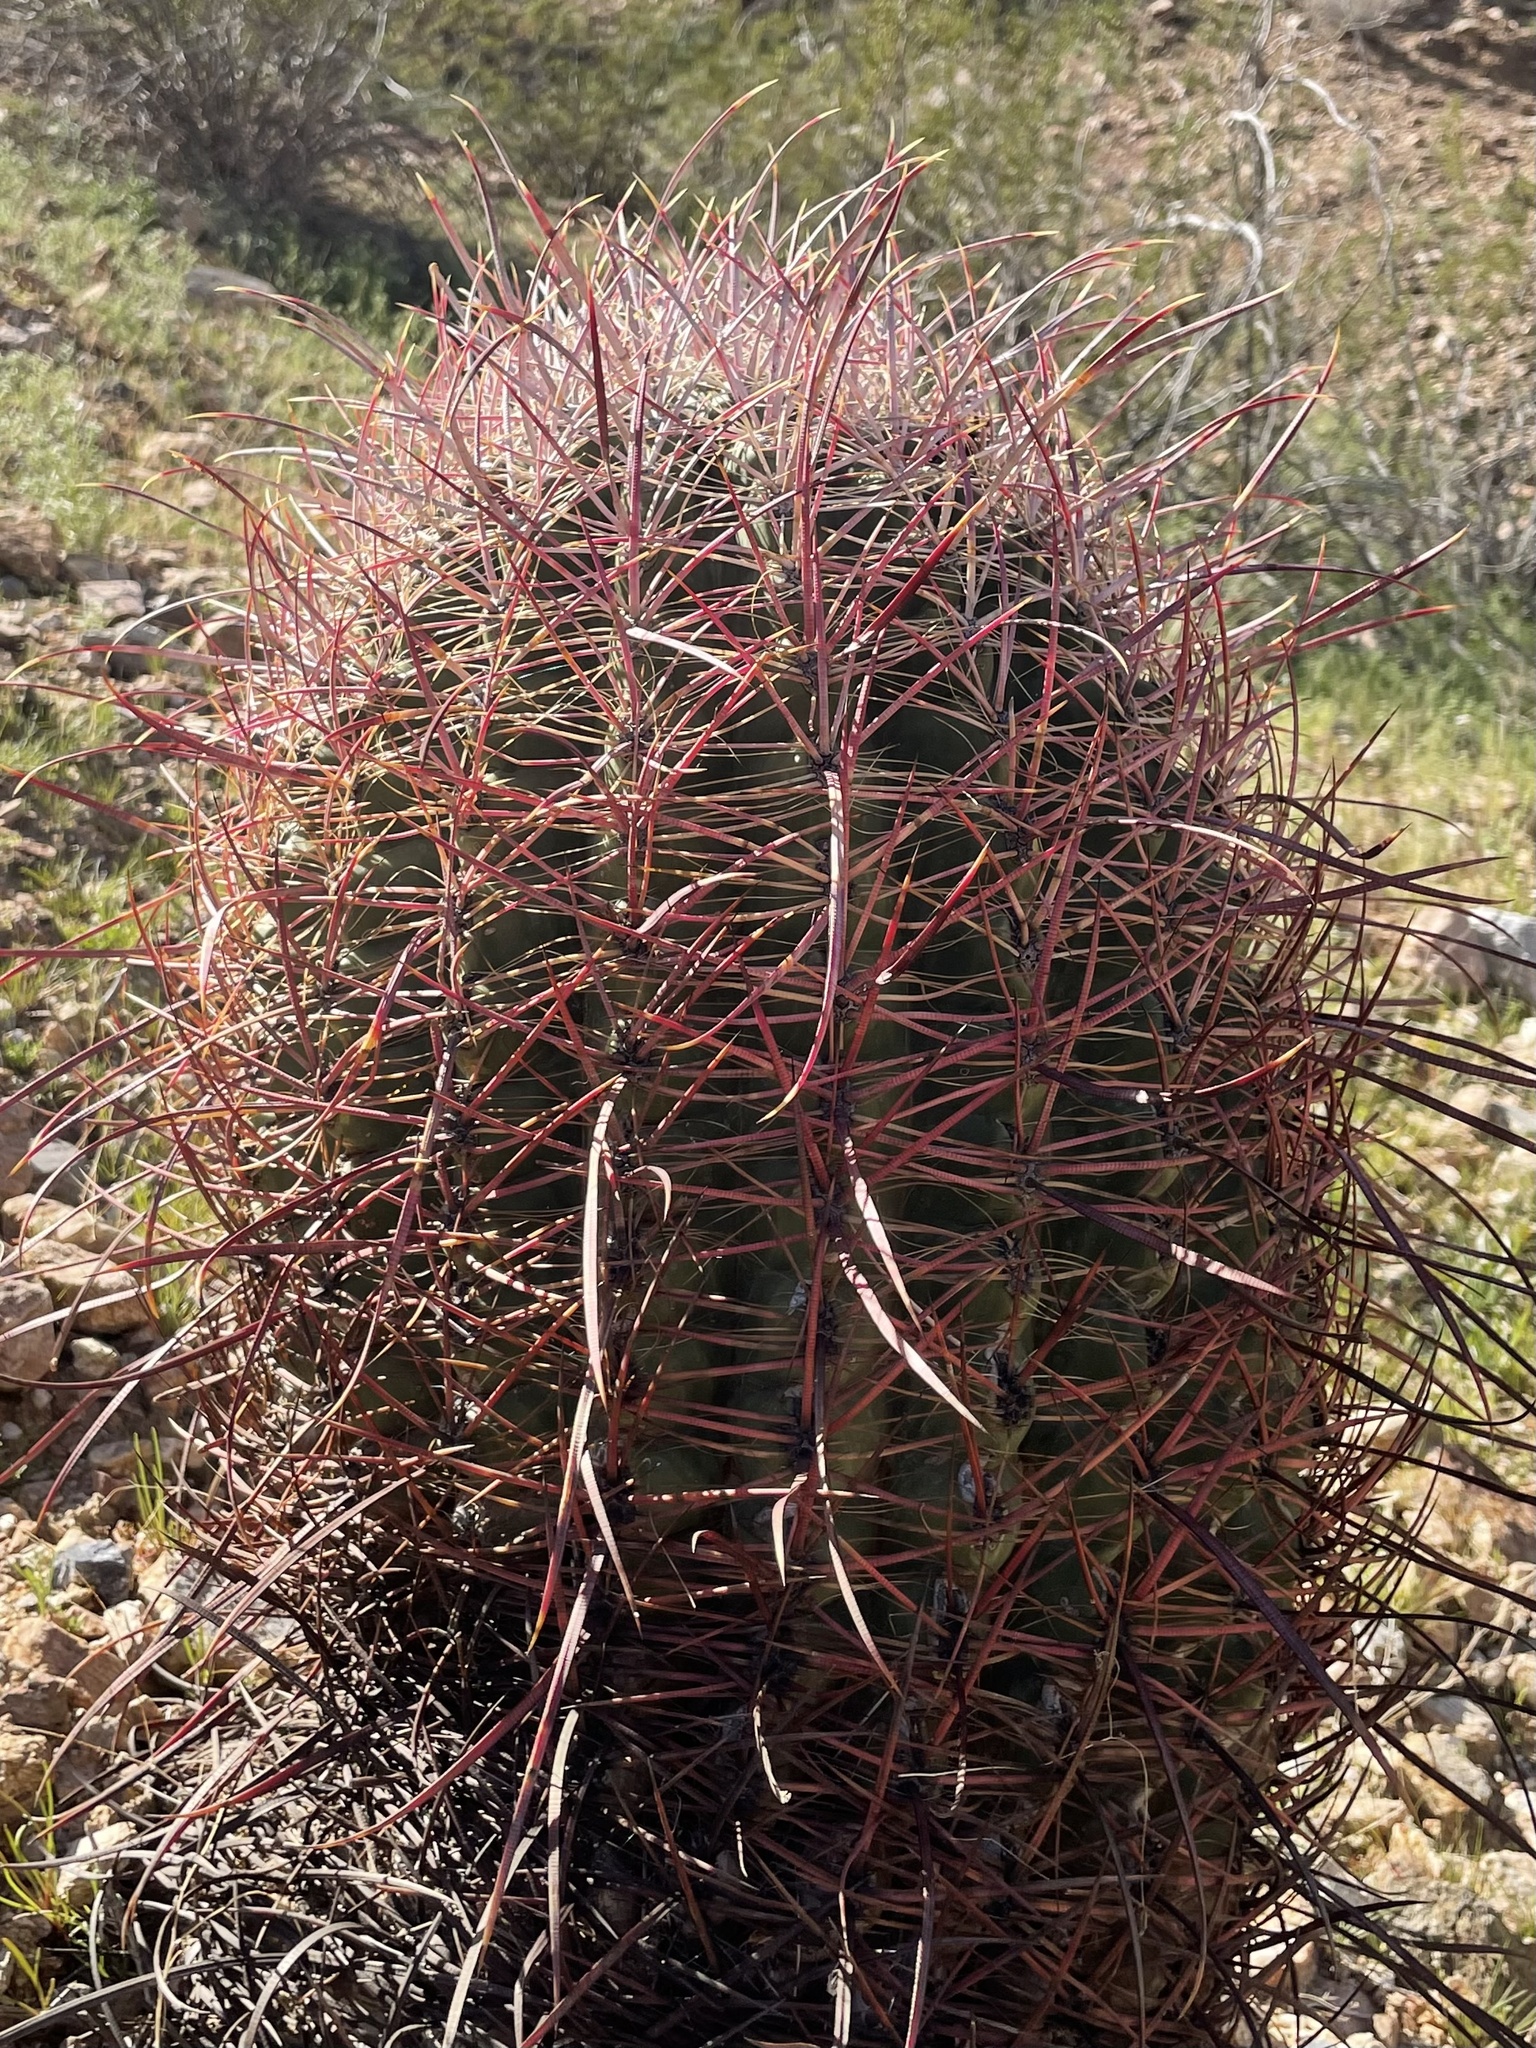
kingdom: Plantae
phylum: Tracheophyta
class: Magnoliopsida
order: Caryophyllales
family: Cactaceae
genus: Ferocactus
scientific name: Ferocactus cylindraceus
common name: California barrel cactus
